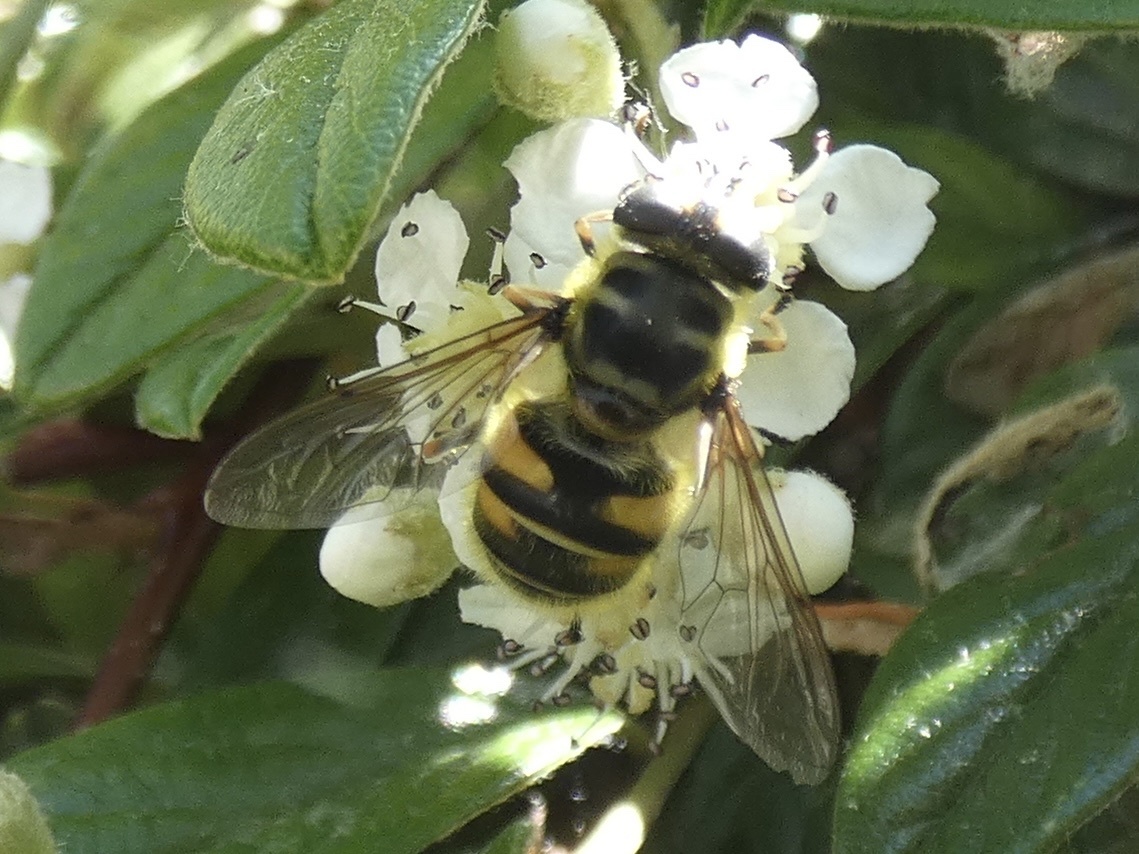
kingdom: Animalia
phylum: Arthropoda
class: Insecta
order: Diptera
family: Syrphidae
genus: Myathropa
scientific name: Myathropa florea
